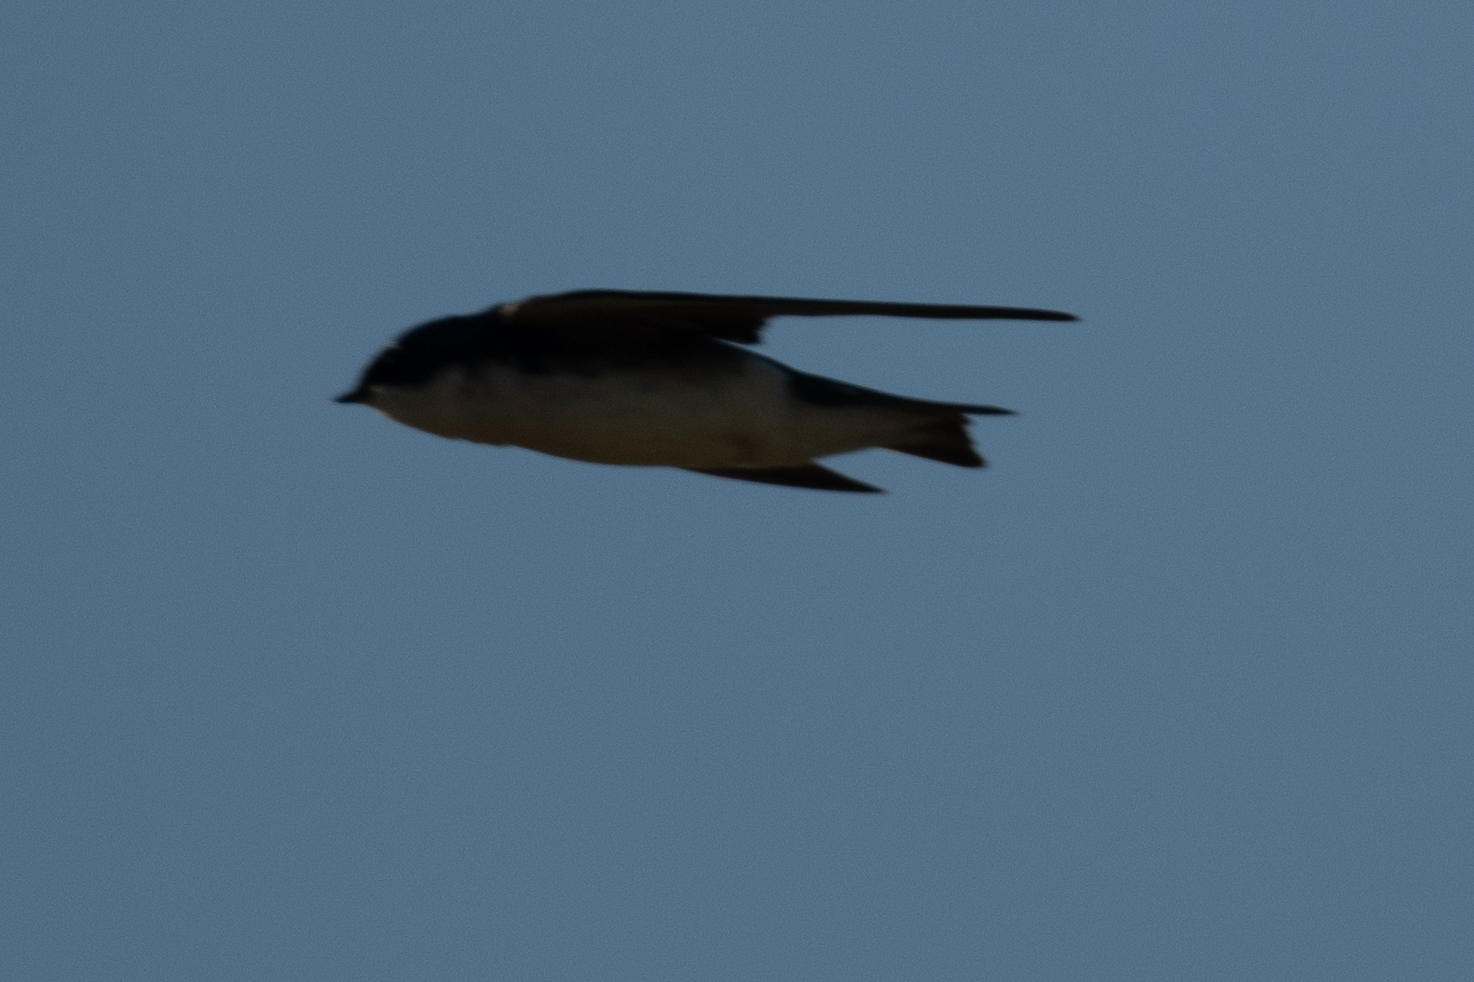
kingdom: Animalia
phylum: Chordata
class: Aves
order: Passeriformes
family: Hirundinidae
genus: Tachycineta
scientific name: Tachycineta bicolor
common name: Tree swallow
